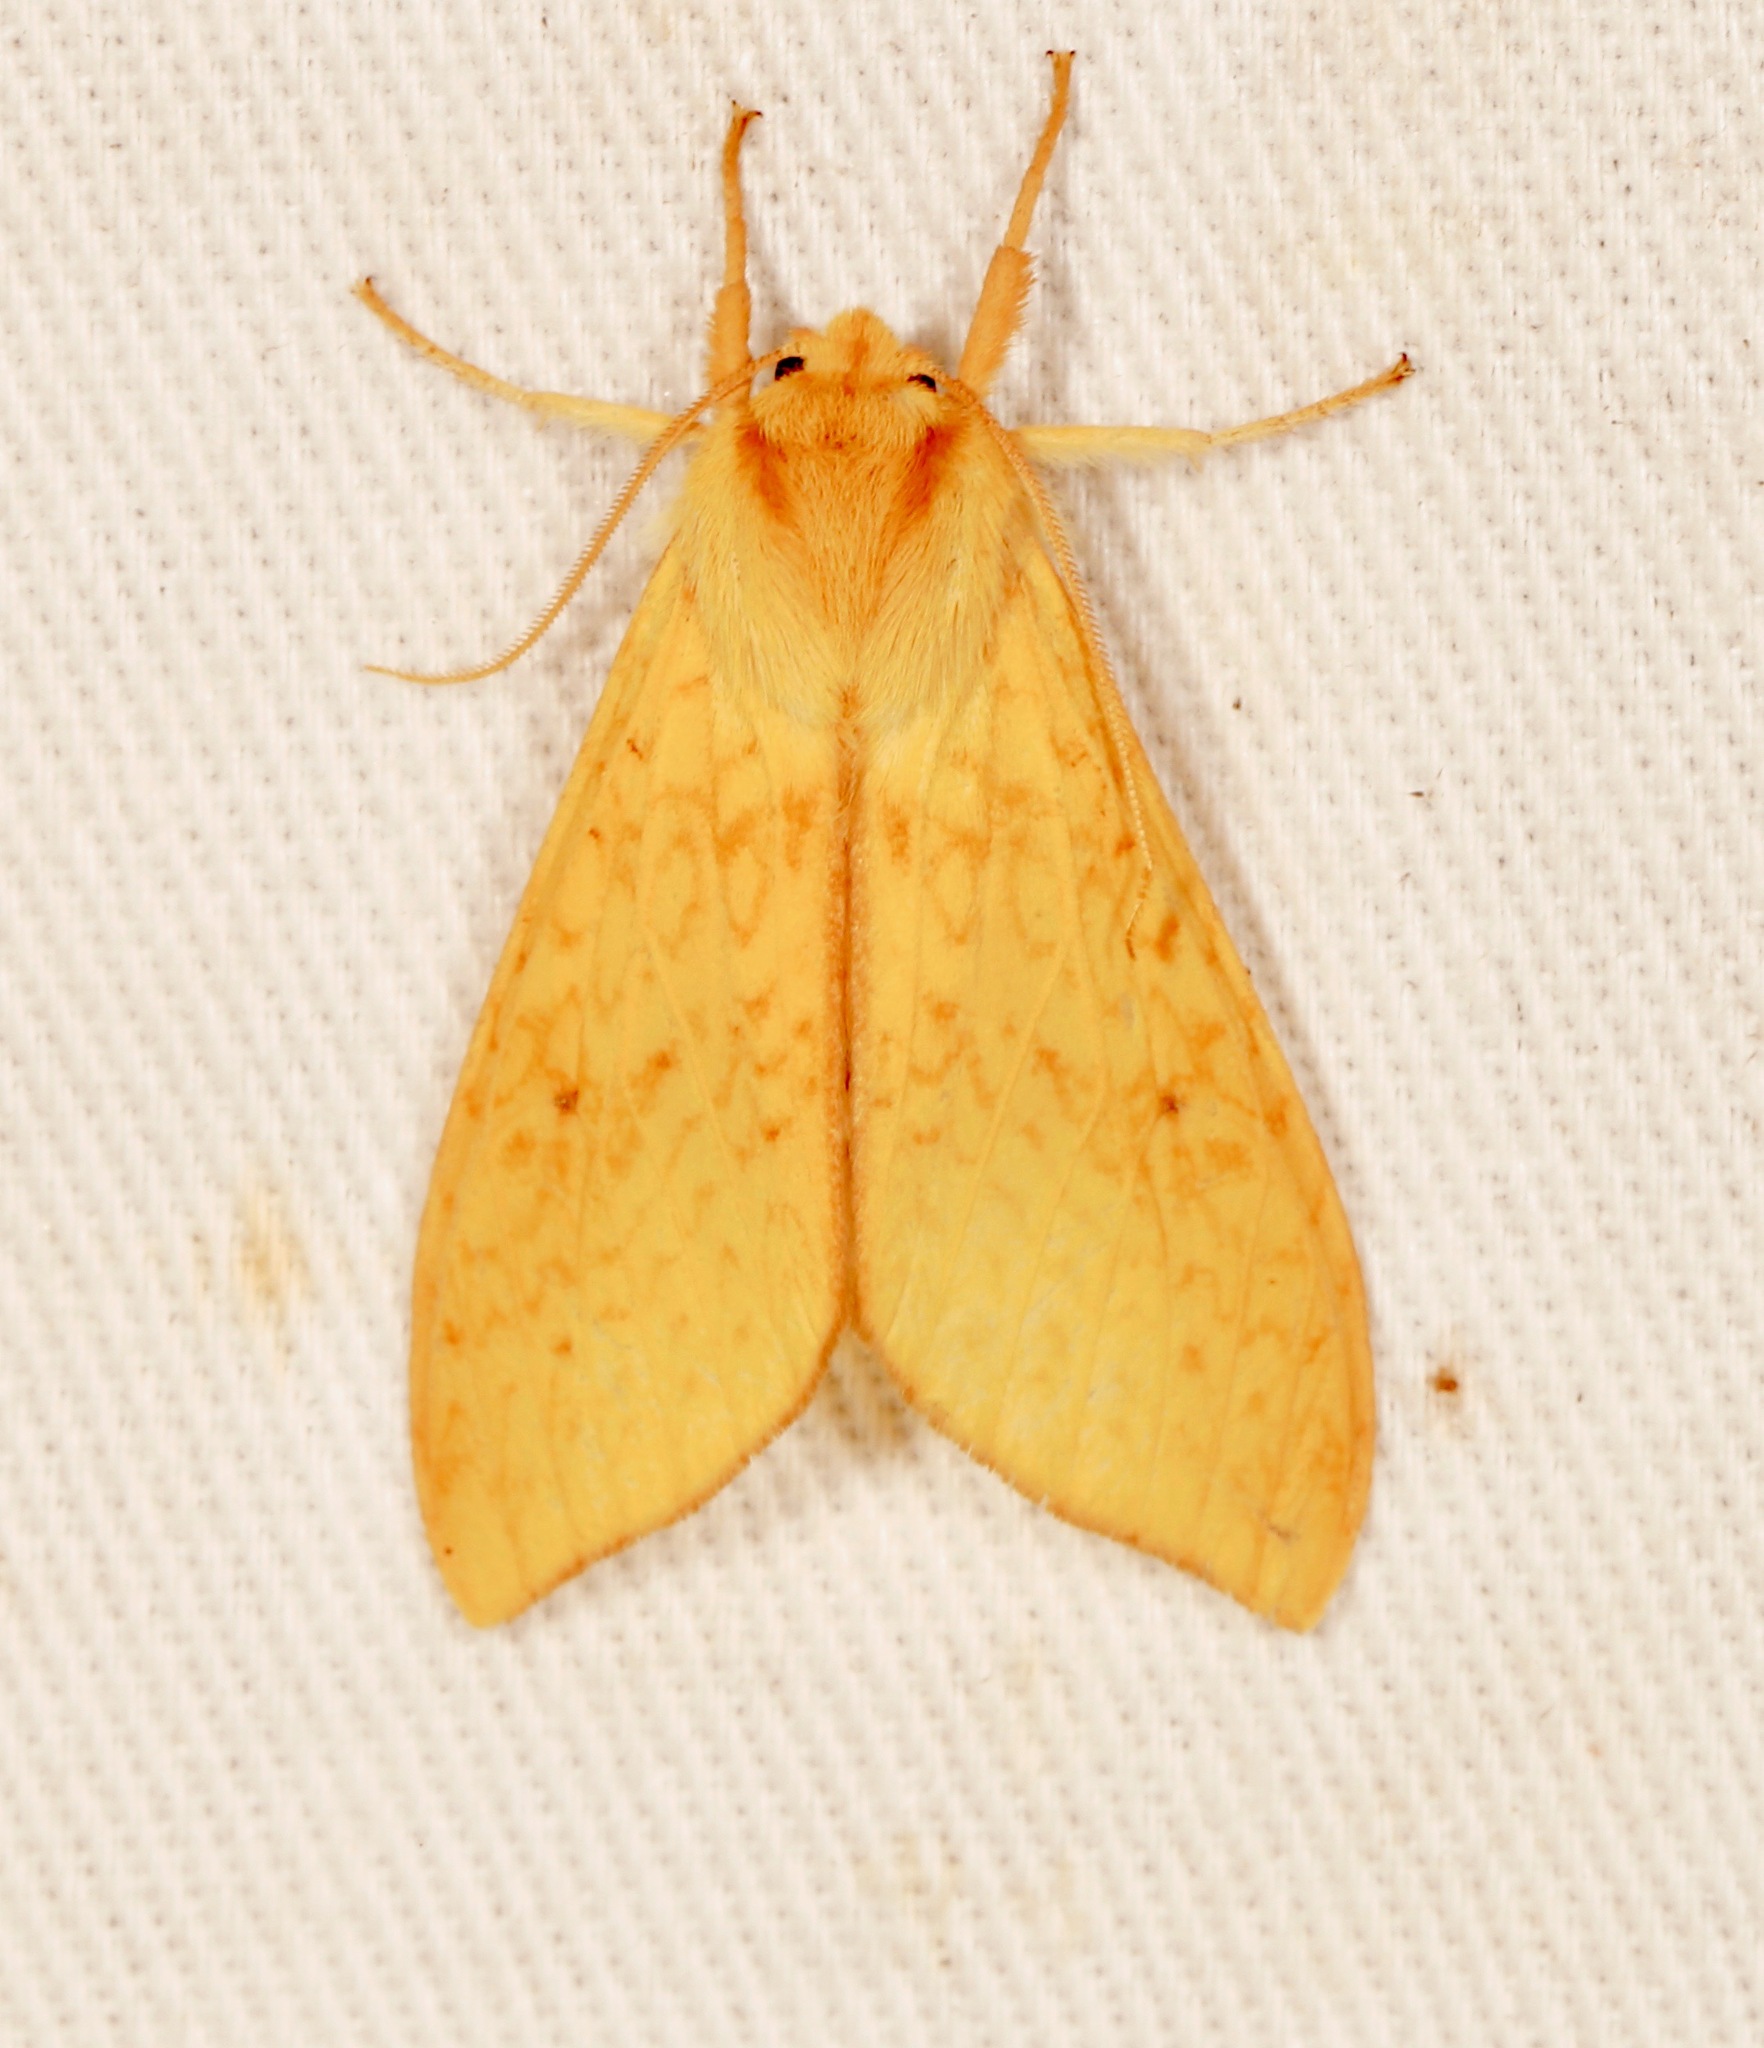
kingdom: Animalia
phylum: Arthropoda
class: Insecta
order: Lepidoptera
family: Erebidae
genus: Lophocampa
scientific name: Lophocampa pura
